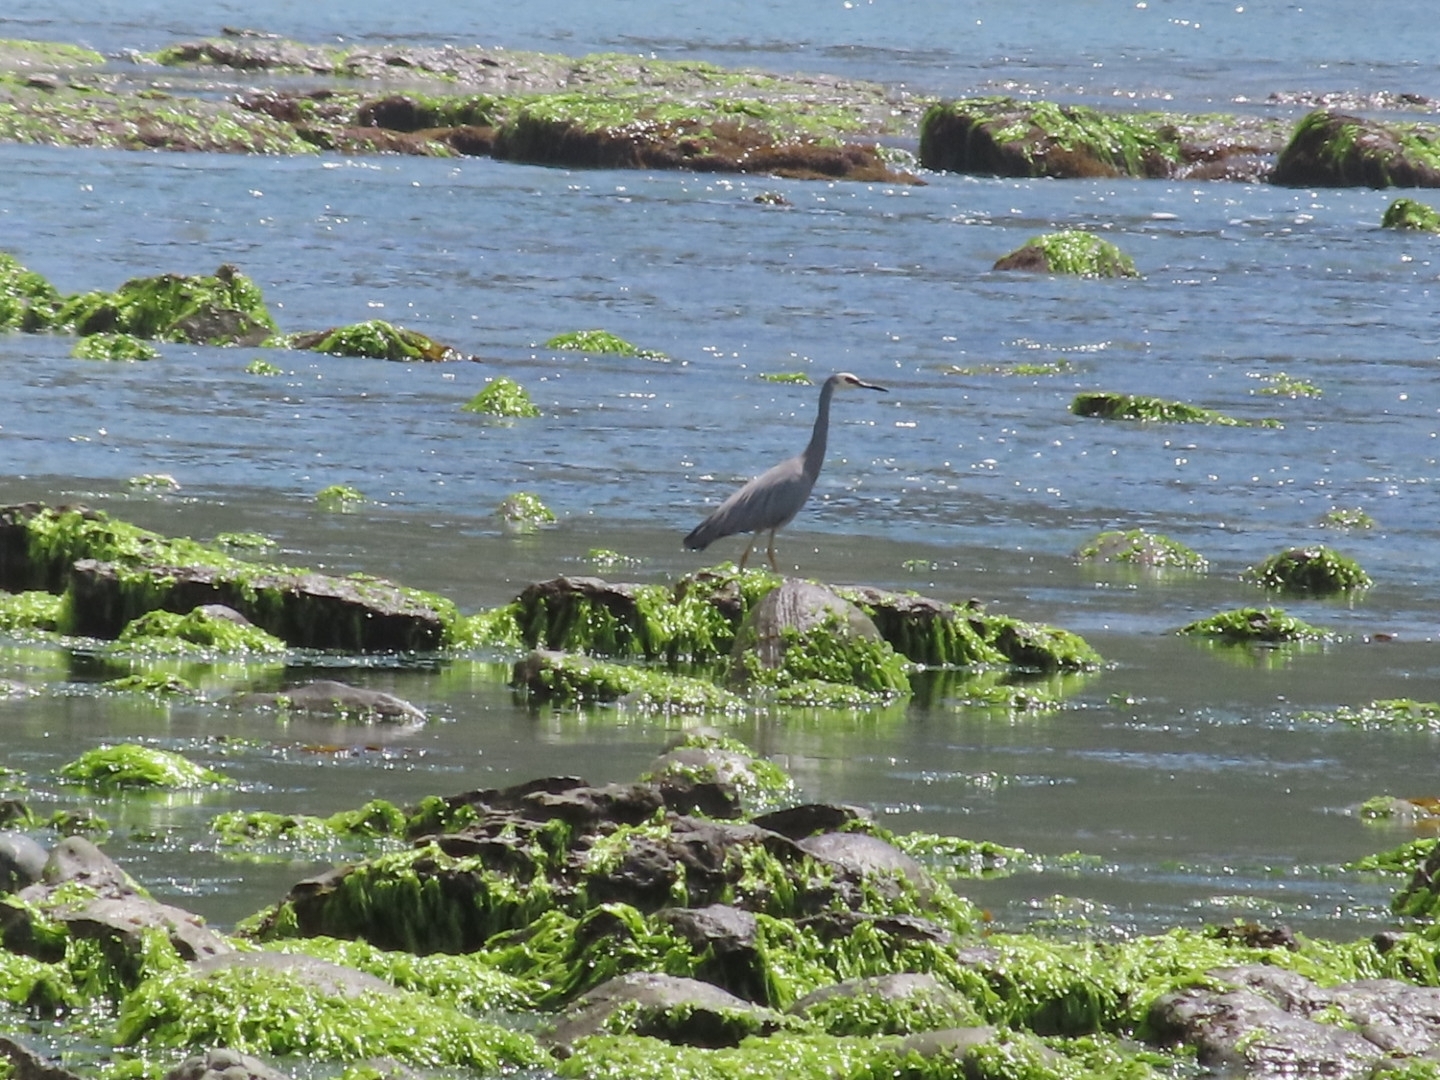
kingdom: Animalia
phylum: Chordata
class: Aves
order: Pelecaniformes
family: Ardeidae
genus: Egretta
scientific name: Egretta novaehollandiae
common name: White-faced heron
